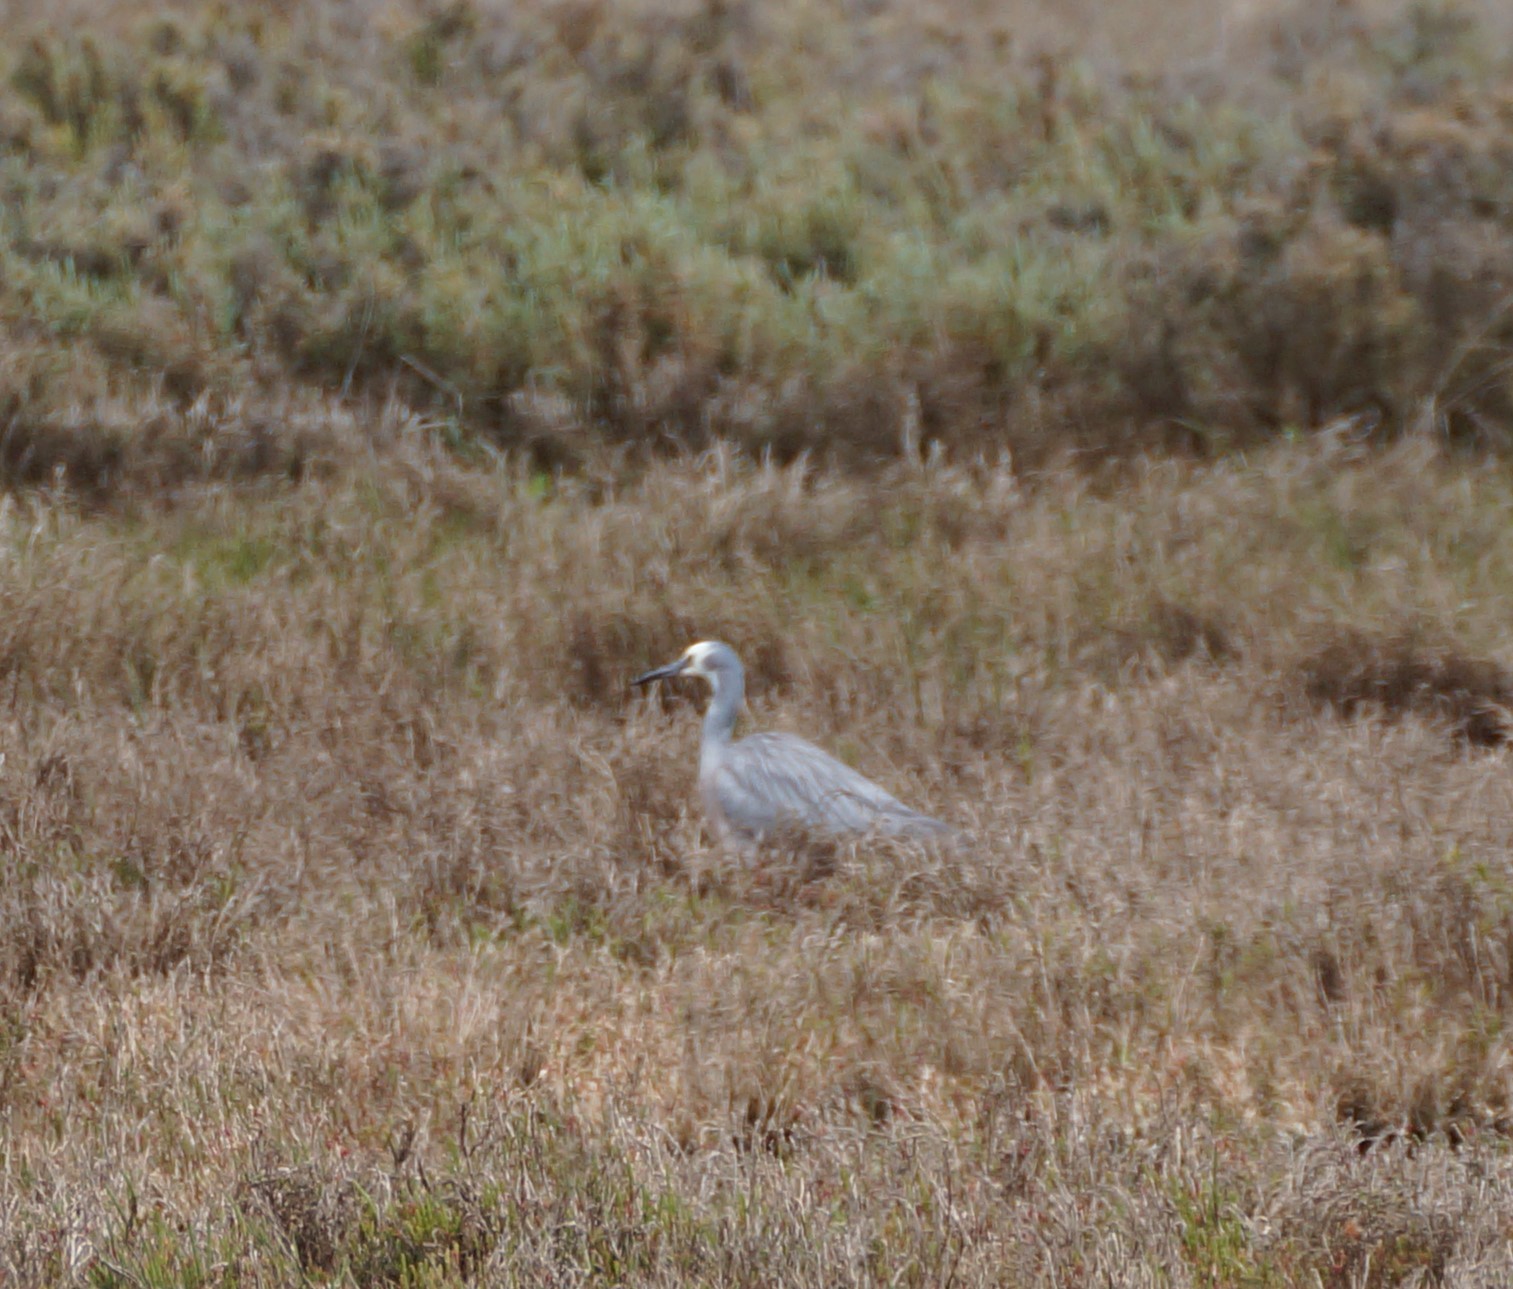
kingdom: Animalia
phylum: Chordata
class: Aves
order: Pelecaniformes
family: Ardeidae
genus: Egretta
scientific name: Egretta novaehollandiae
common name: White-faced heron
